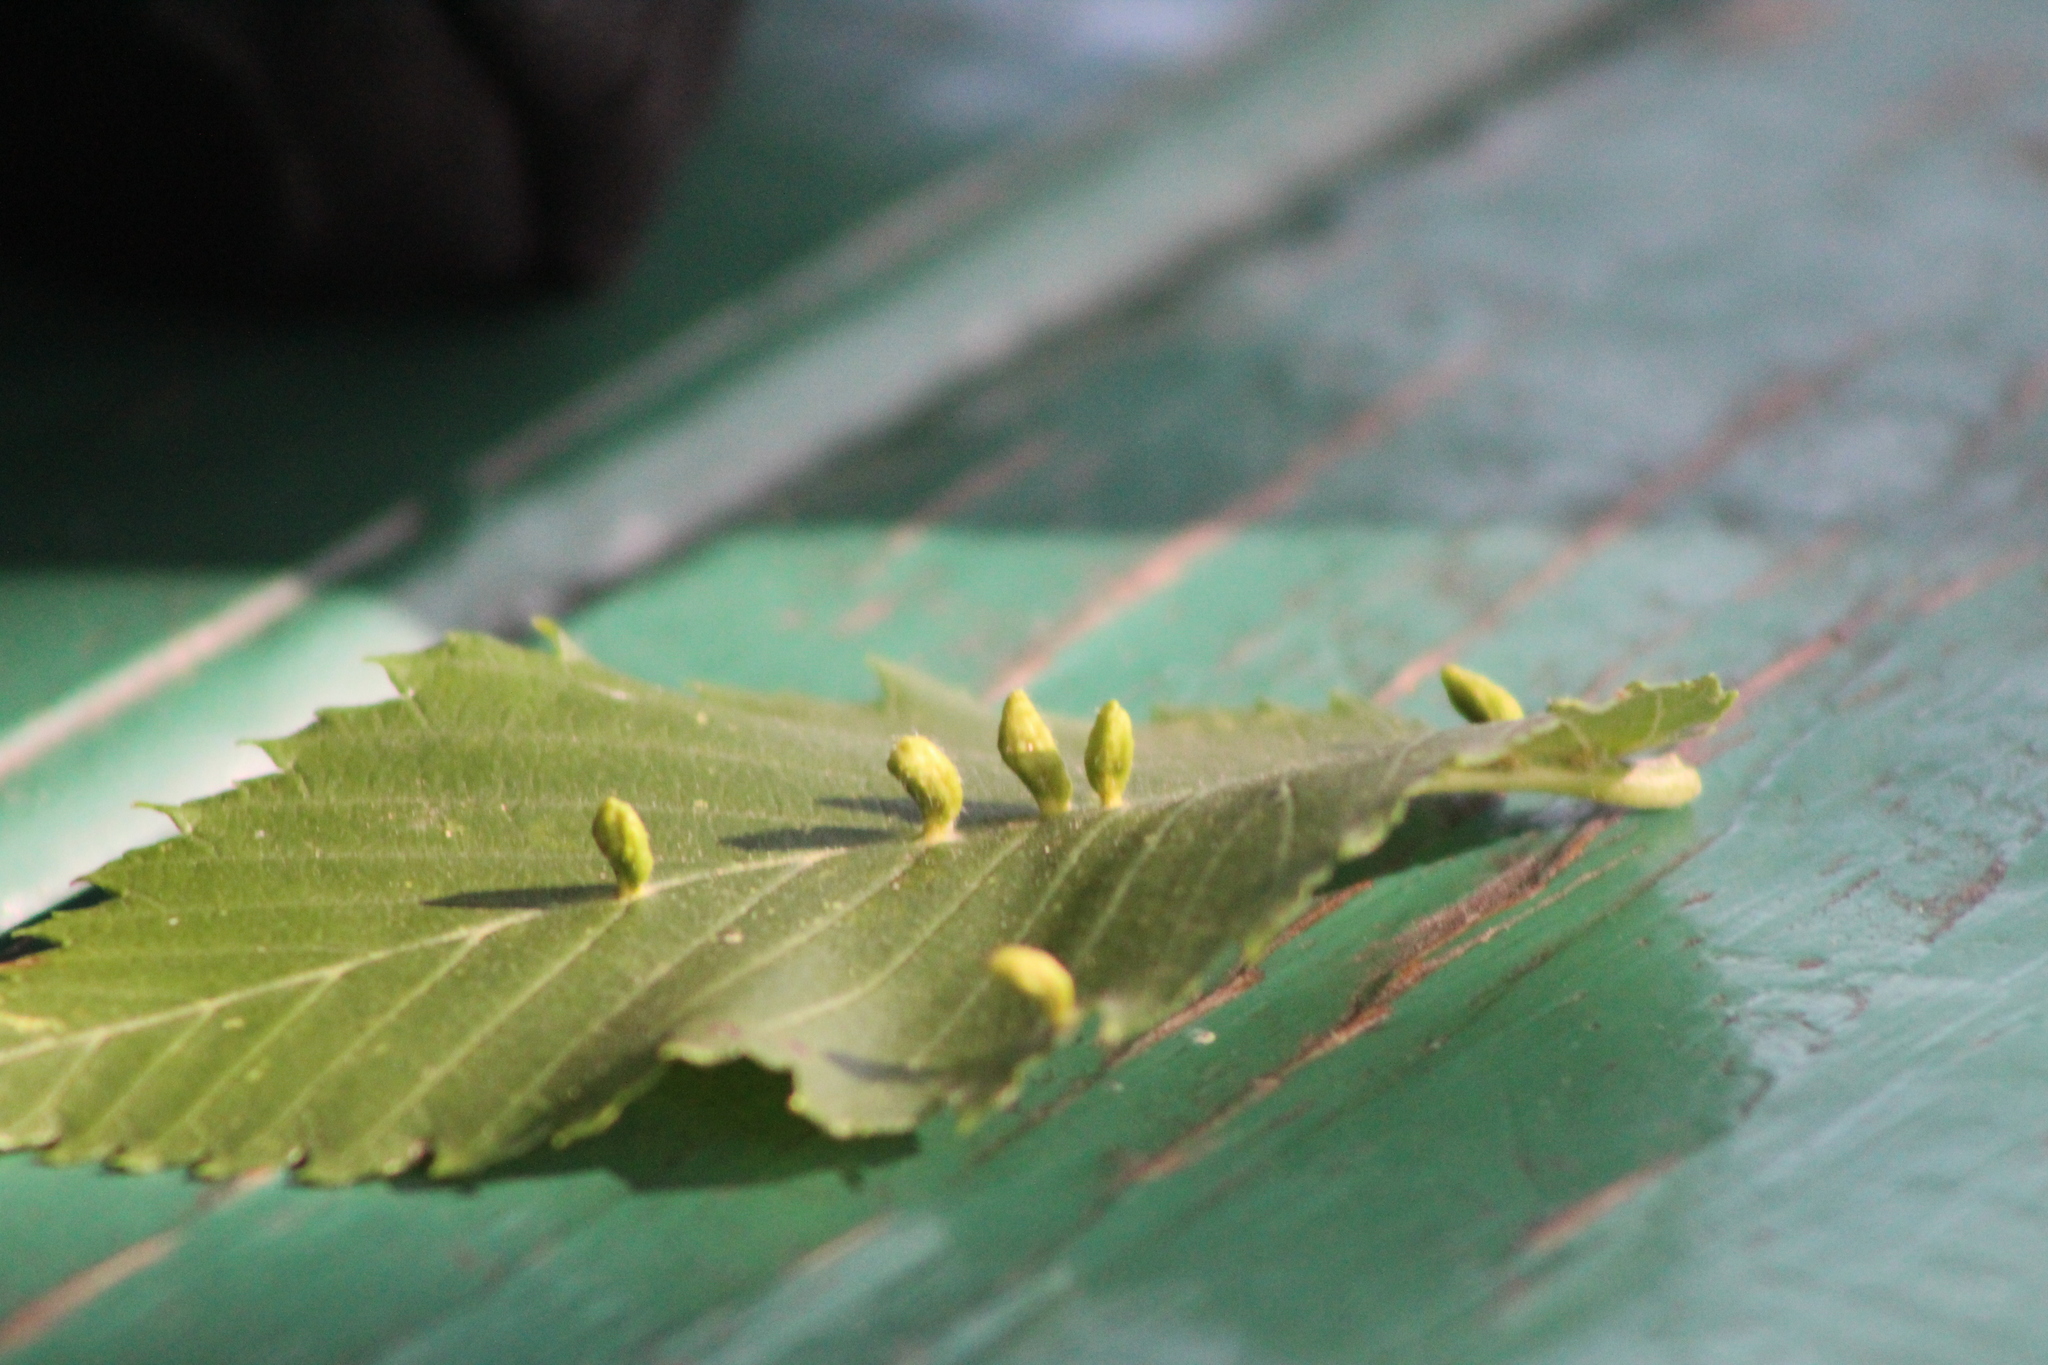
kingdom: Animalia
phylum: Arthropoda
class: Arachnida
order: Trombidiformes
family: Eriophyidae
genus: Aceria
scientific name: Aceria
